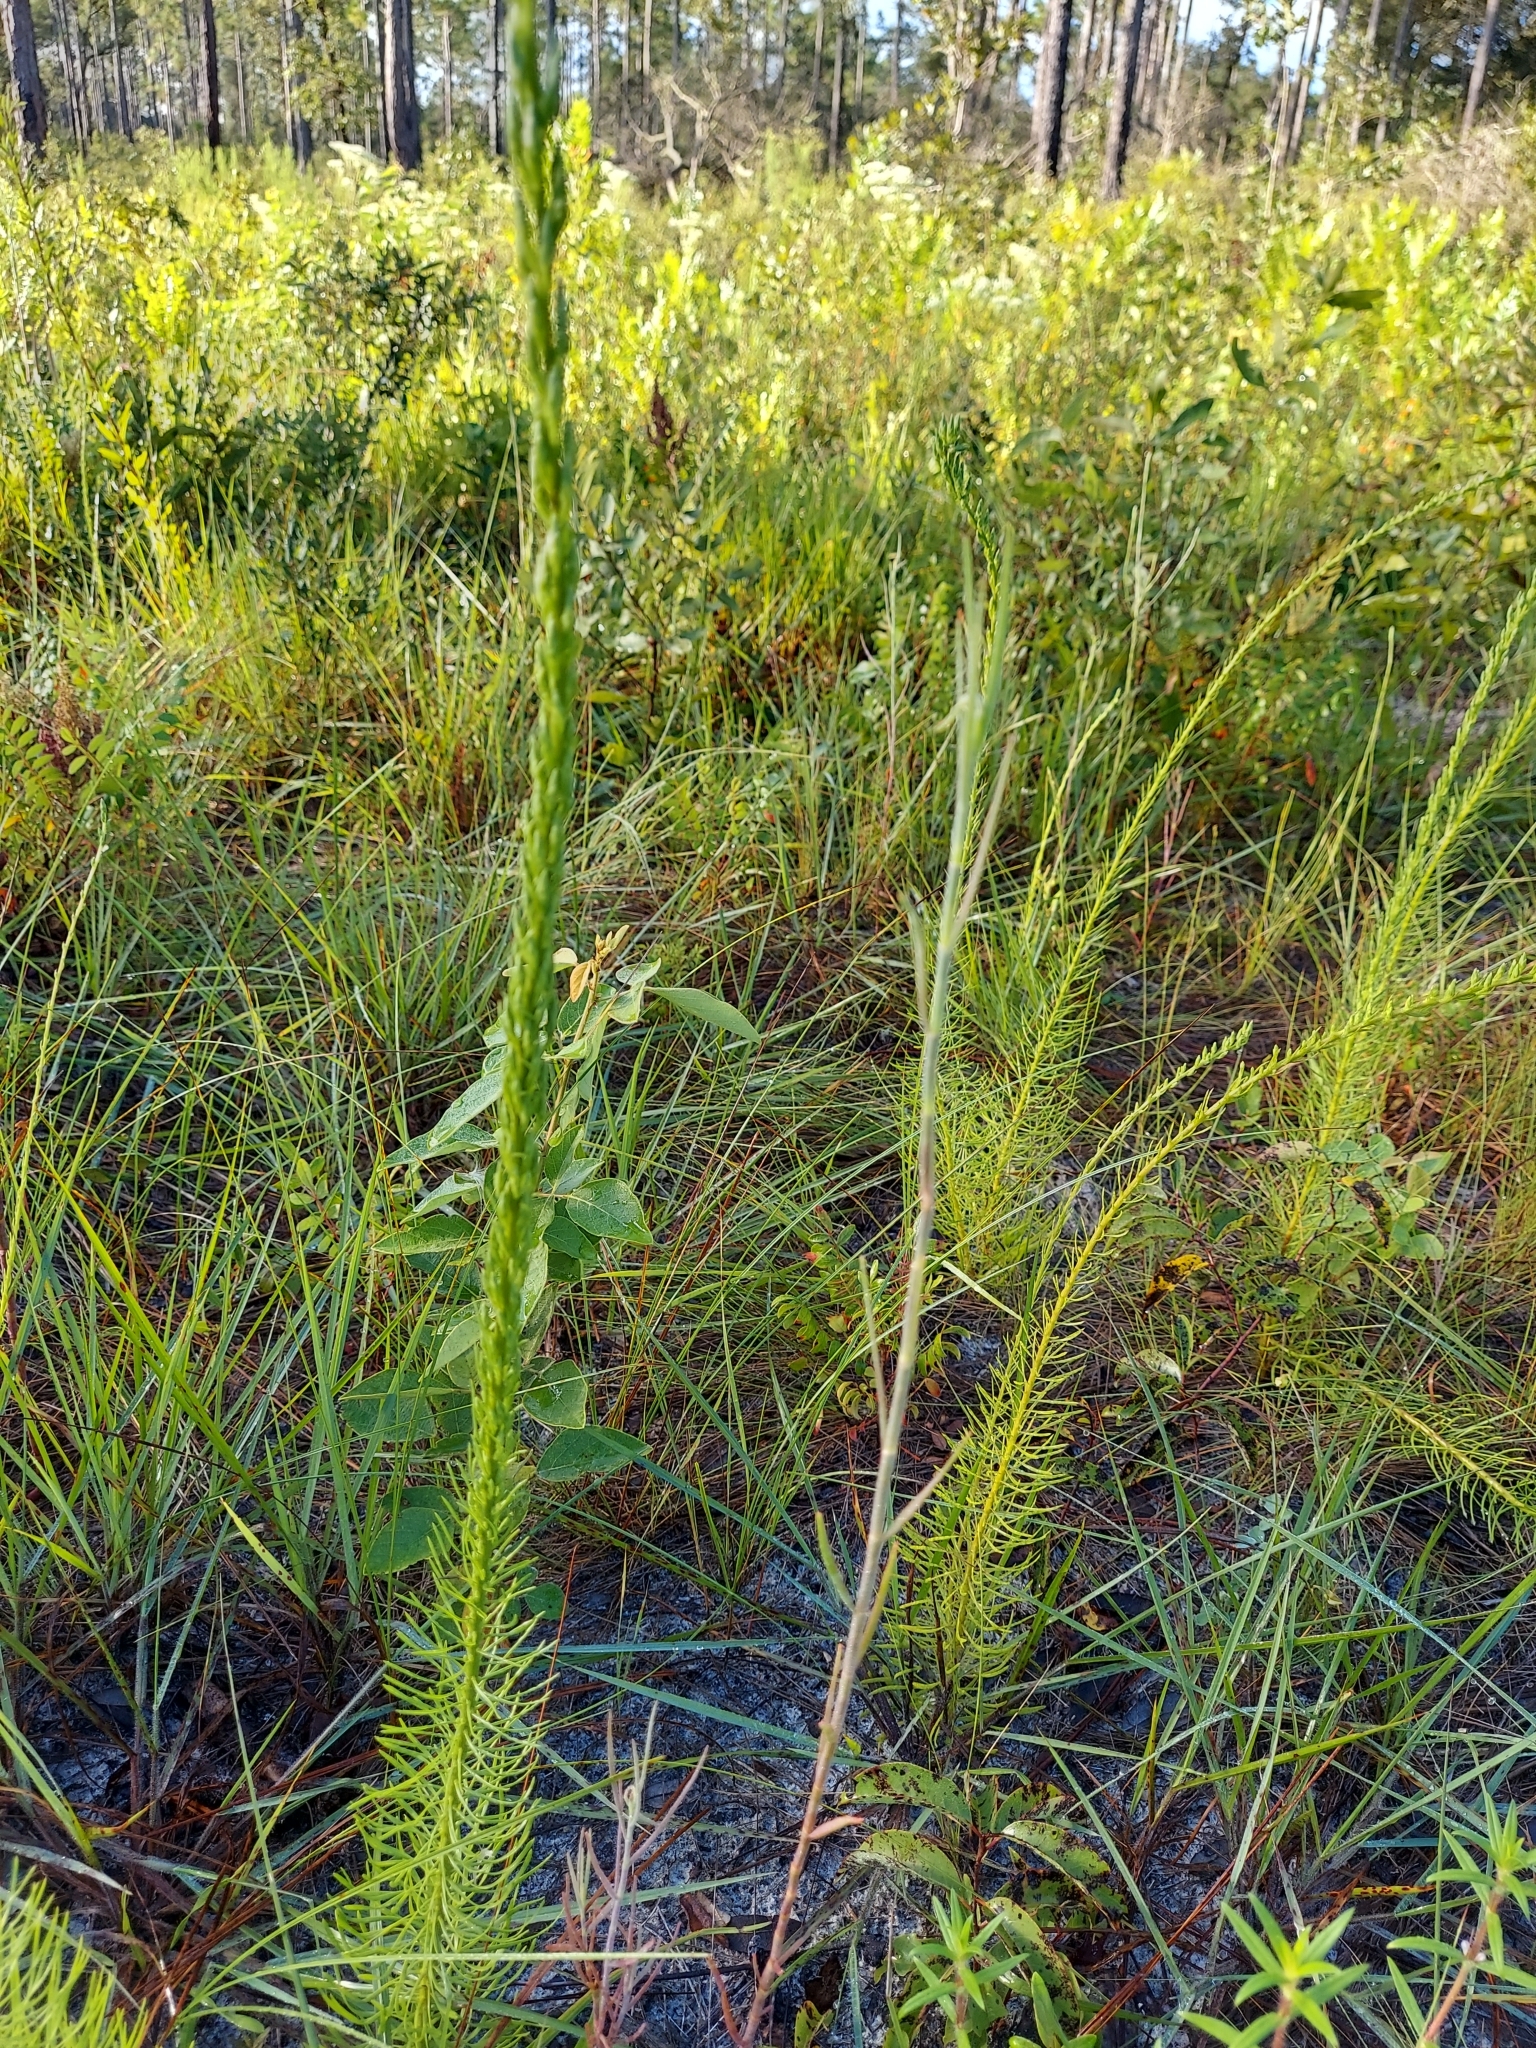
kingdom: Plantae
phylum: Tracheophyta
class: Magnoliopsida
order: Asterales
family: Asteraceae
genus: Liatris
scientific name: Liatris pauciflora
